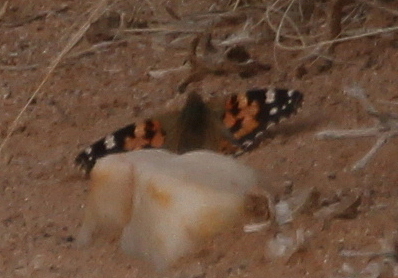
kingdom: Animalia
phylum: Arthropoda
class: Insecta
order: Lepidoptera
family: Nymphalidae
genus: Vanessa
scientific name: Vanessa cardui
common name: Painted lady
